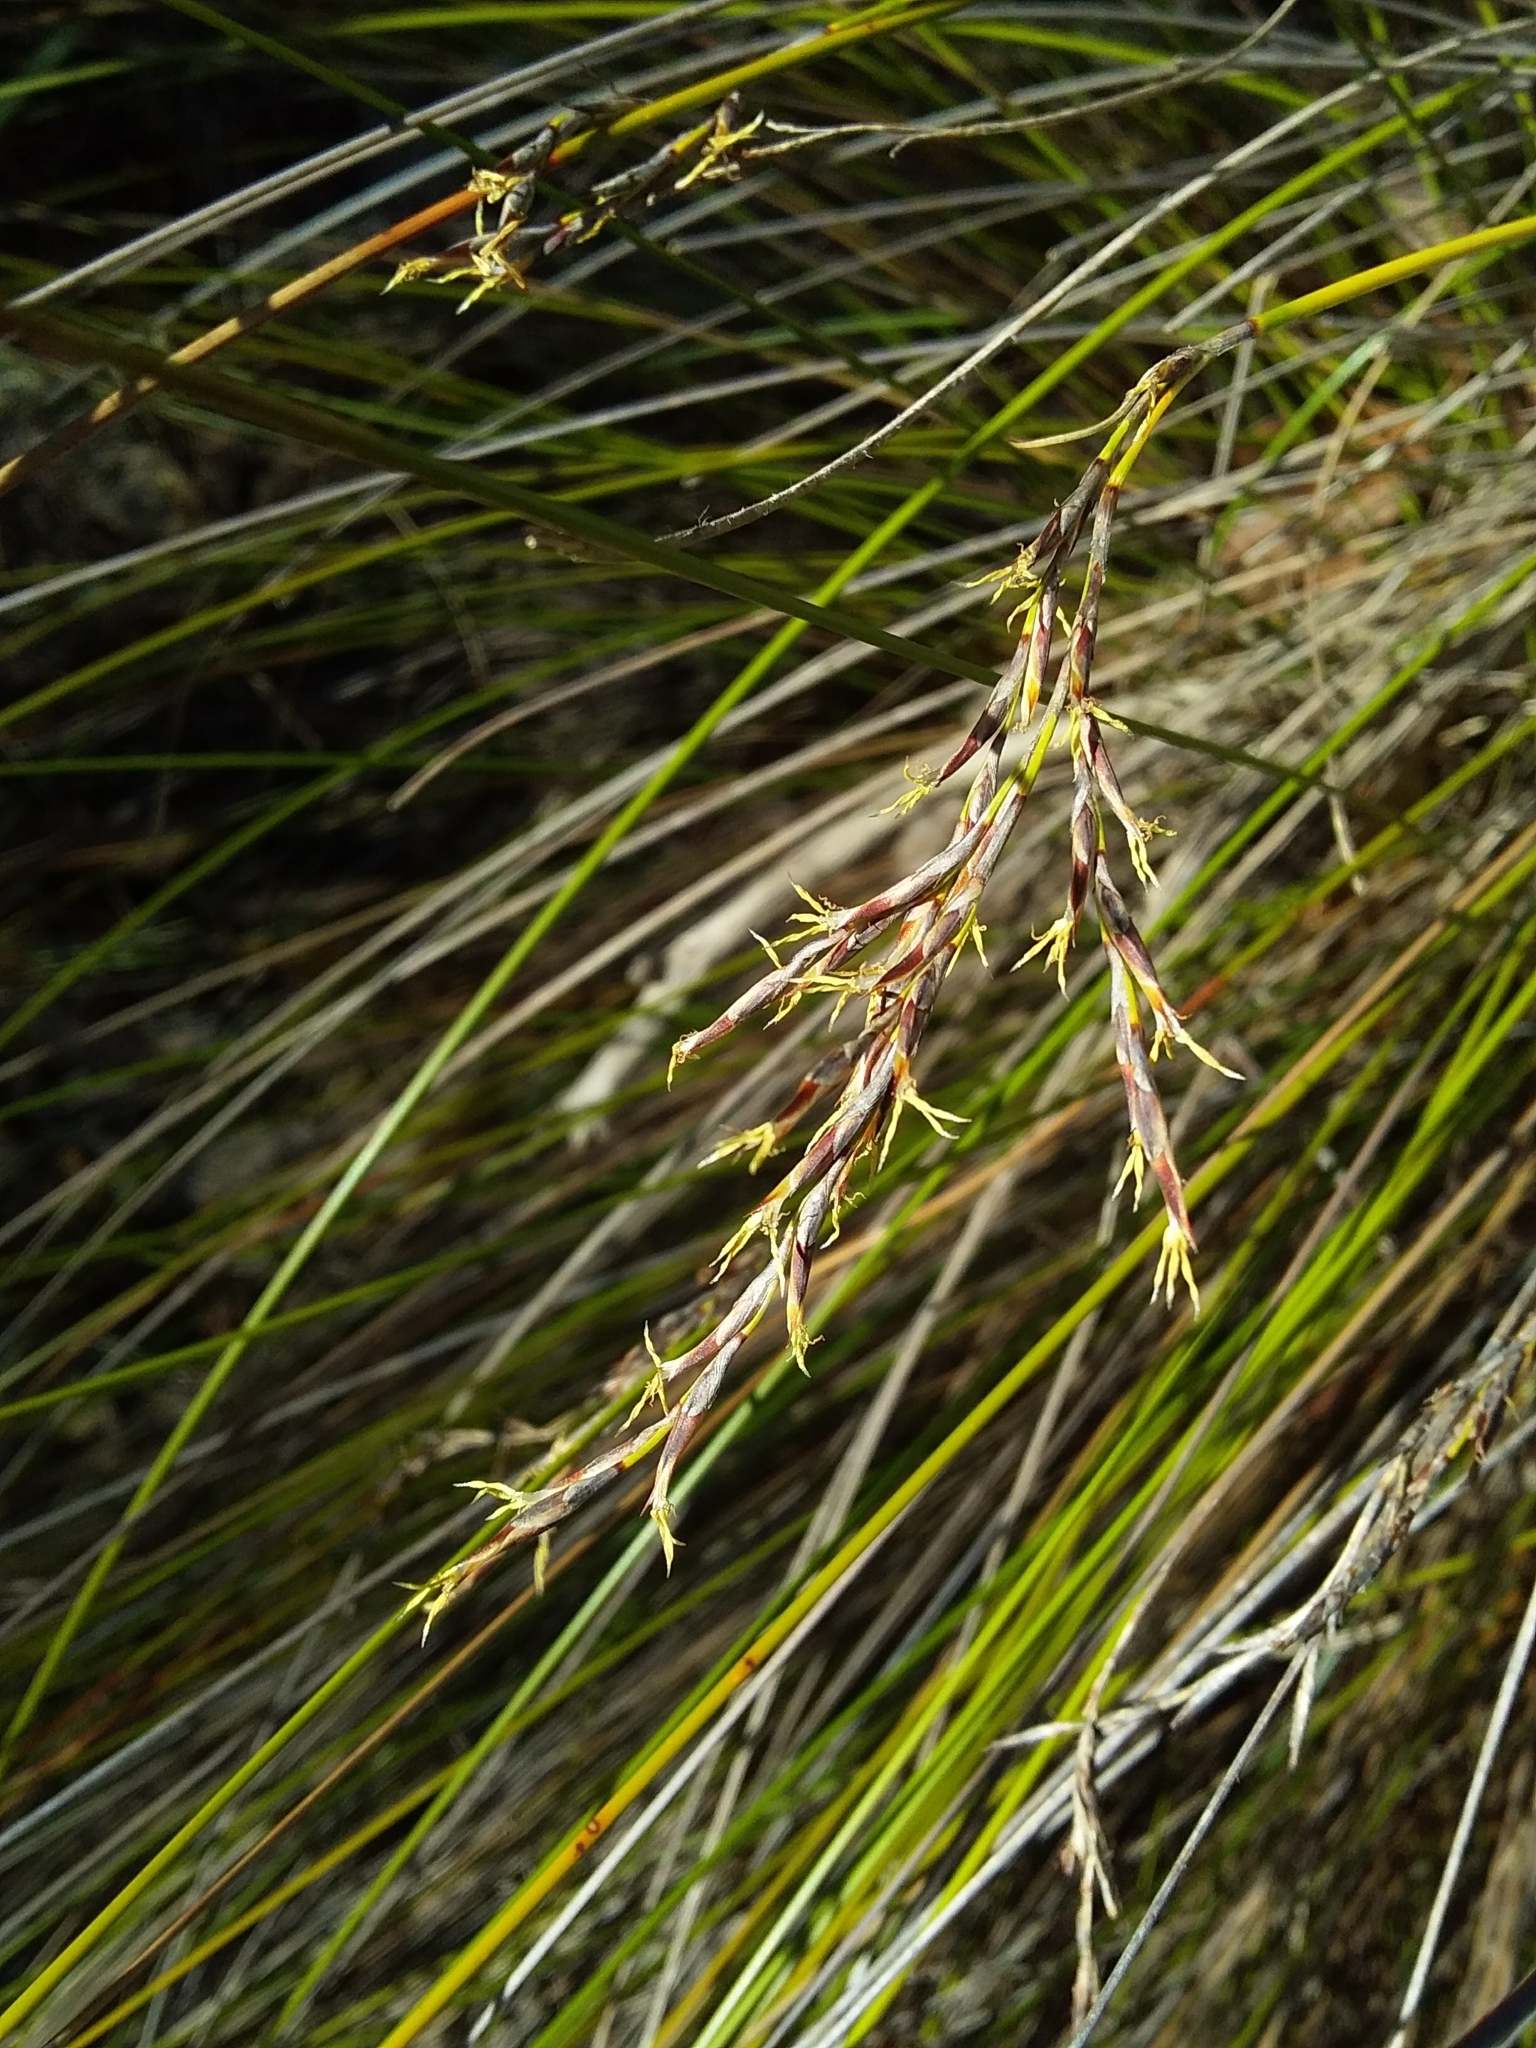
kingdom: Plantae
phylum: Tracheophyta
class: Liliopsida
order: Poales
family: Cyperaceae
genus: Lepidosperma
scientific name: Lepidosperma semiteres
